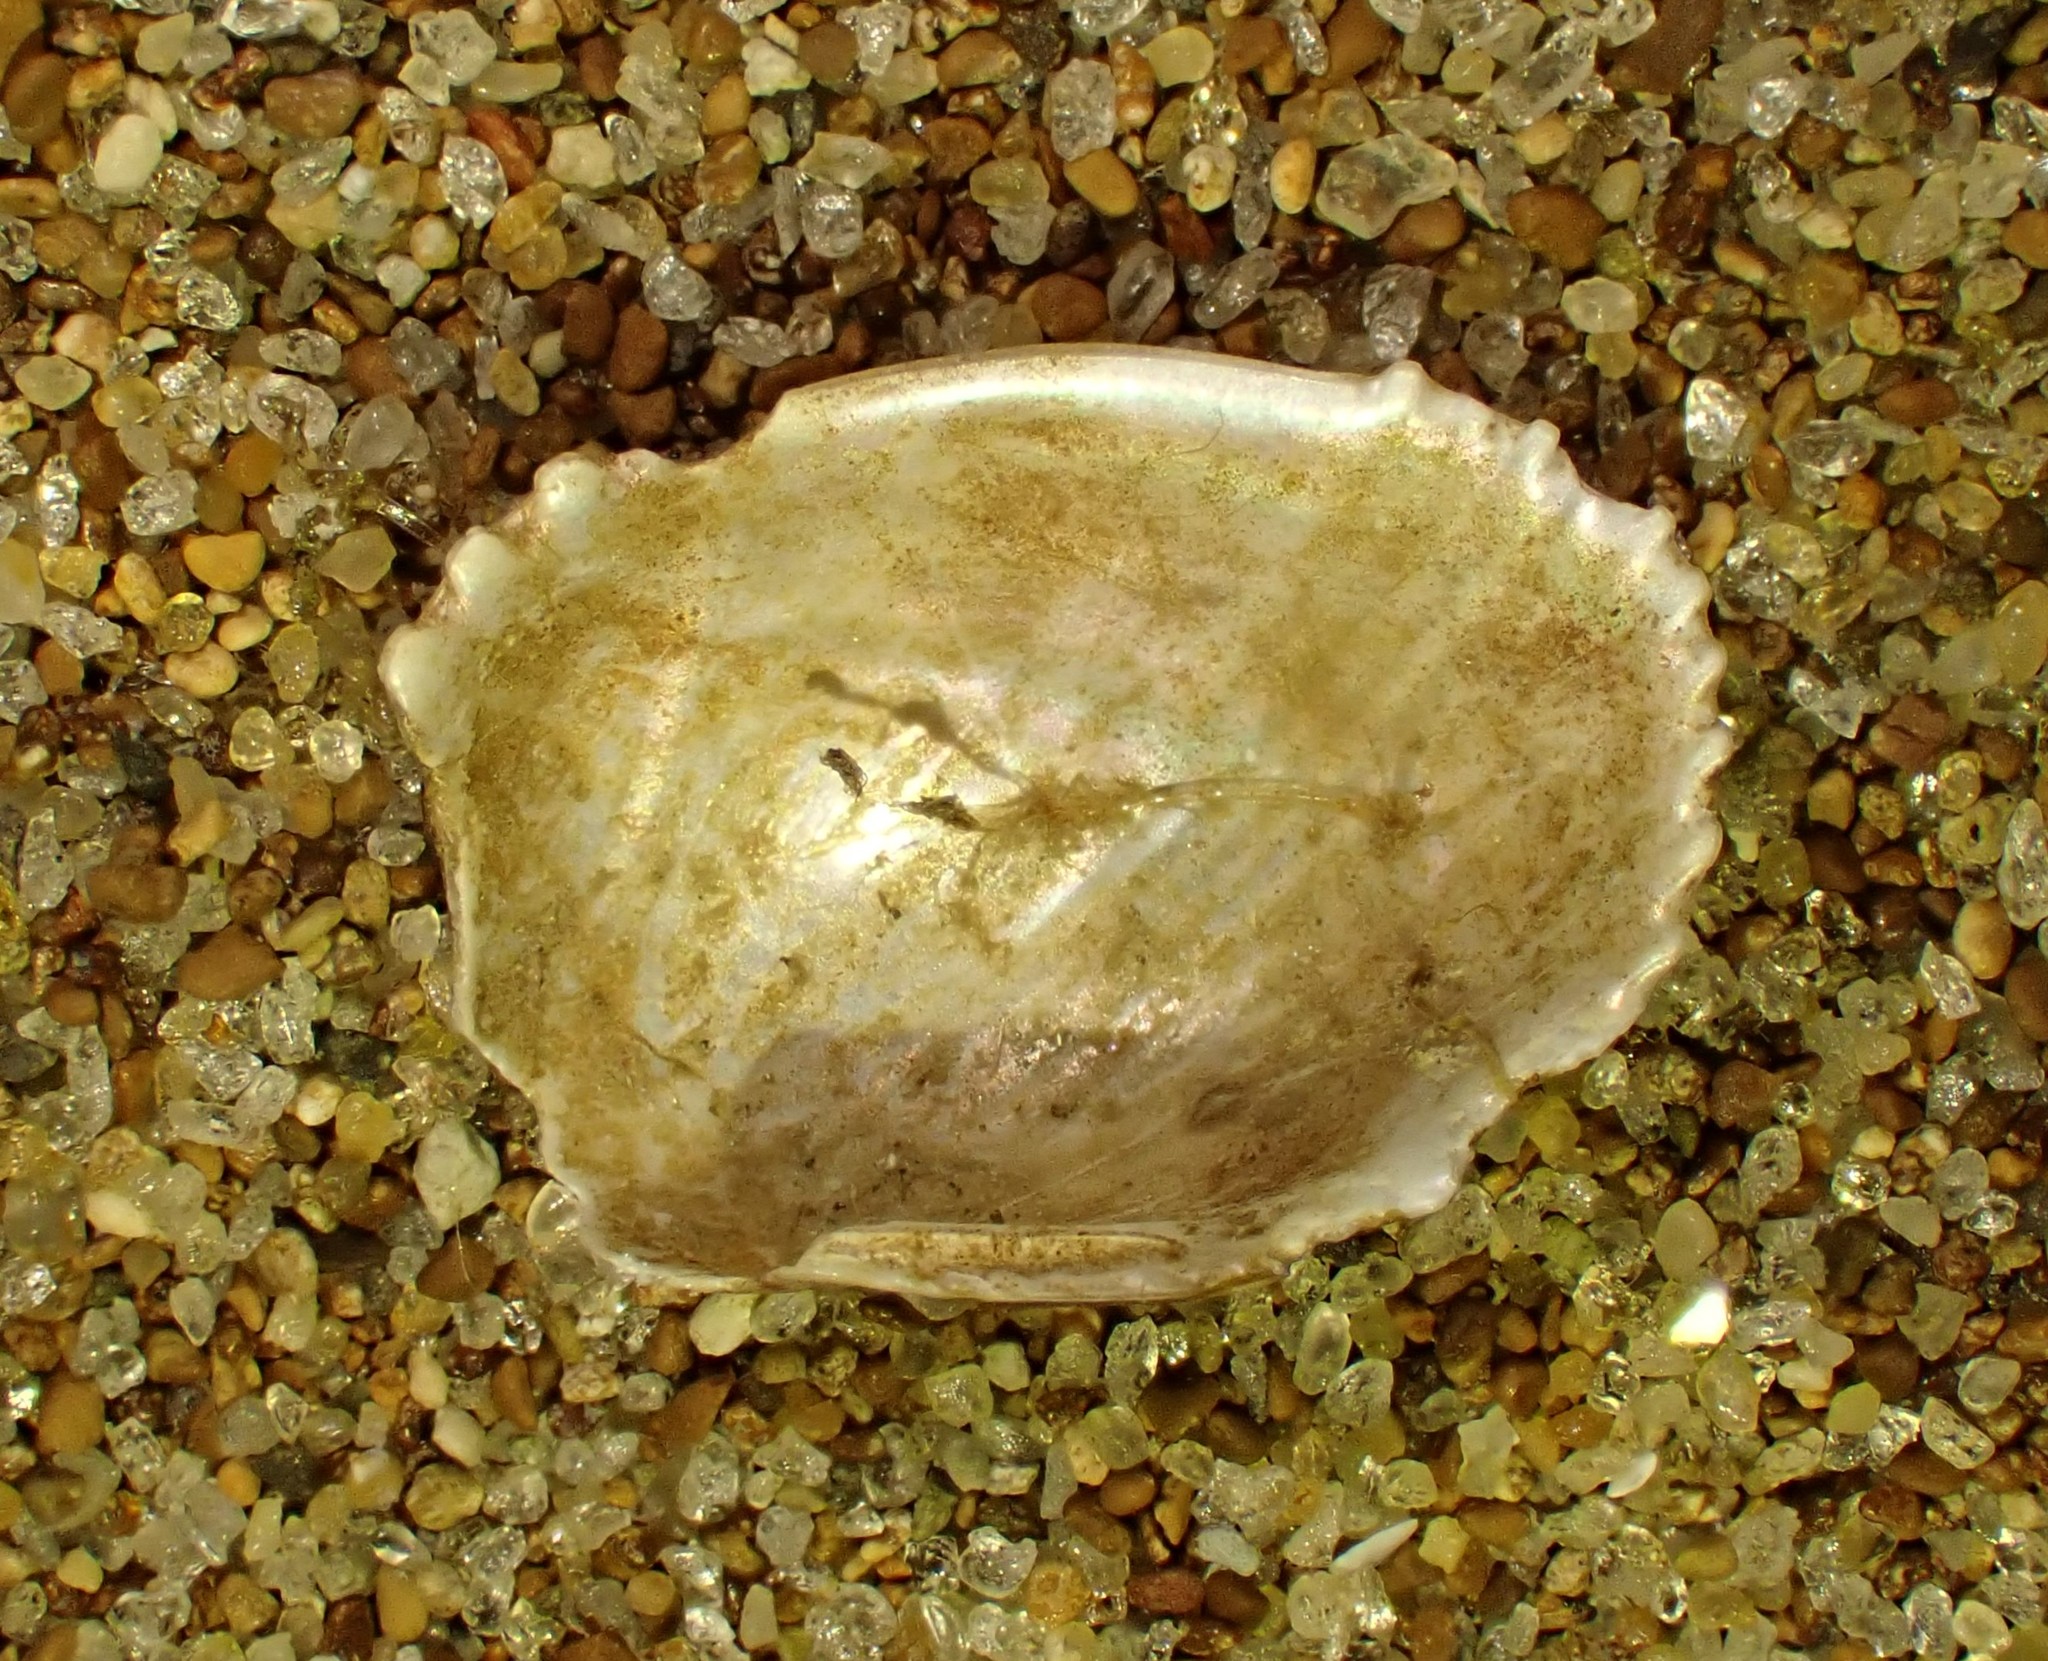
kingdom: Animalia
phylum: Mollusca
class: Bivalvia
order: Mytilida
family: Mytilidae
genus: Musculus
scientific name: Musculus impactus
